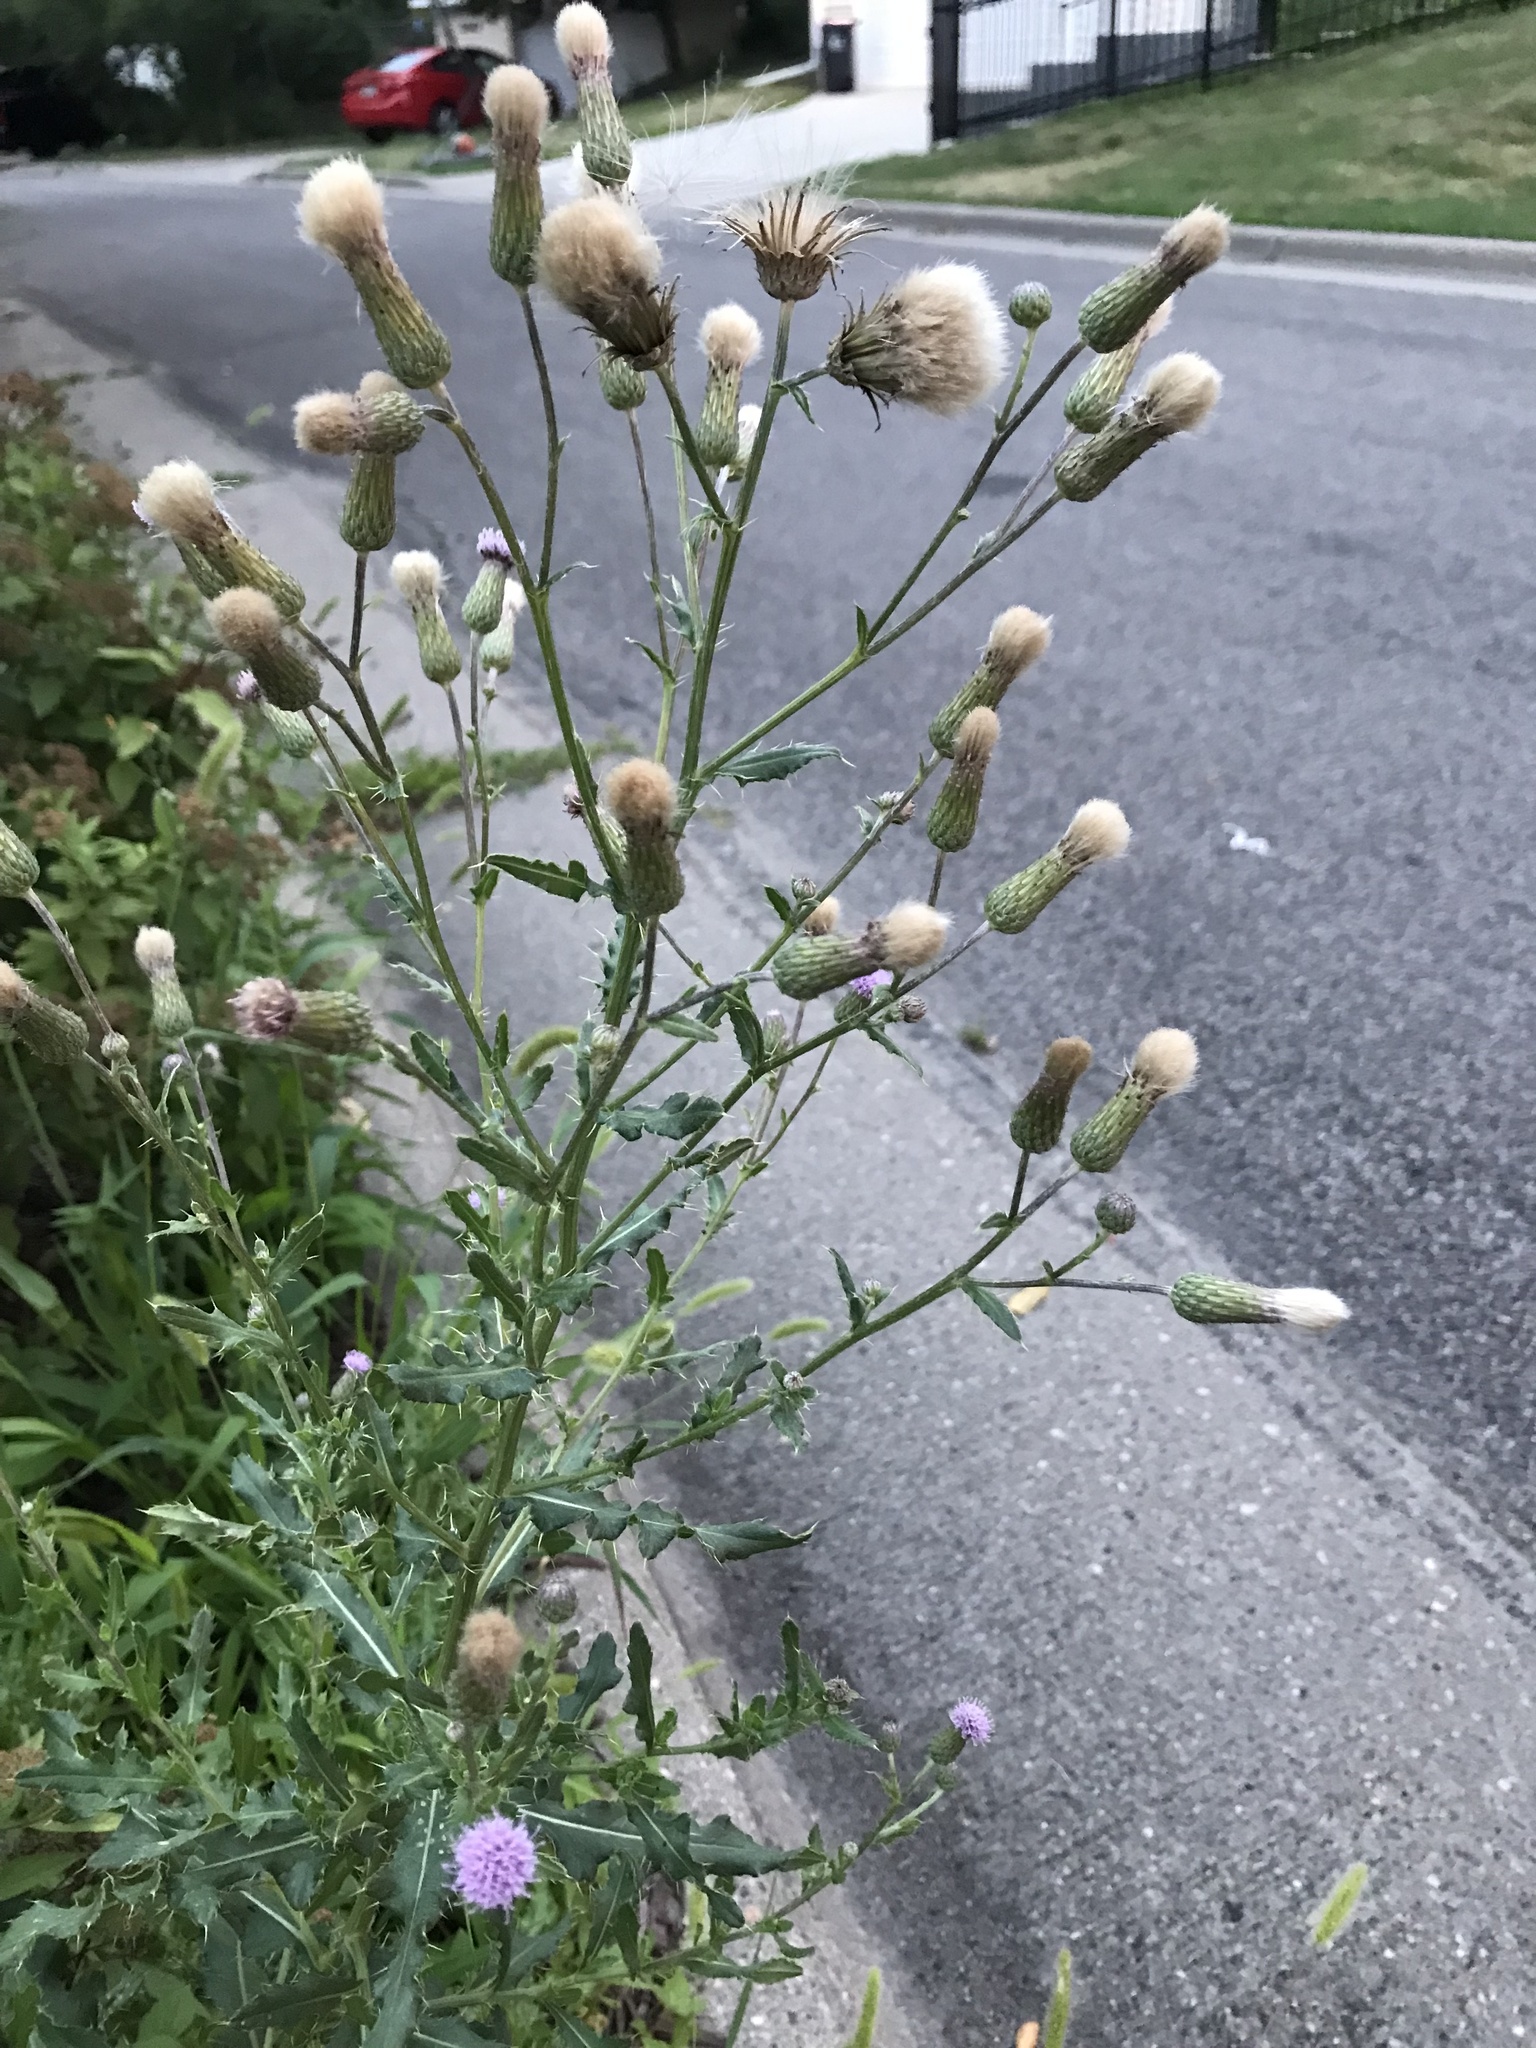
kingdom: Plantae
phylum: Tracheophyta
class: Magnoliopsida
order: Asterales
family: Asteraceae
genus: Cirsium
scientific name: Cirsium arvense
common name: Creeping thistle
